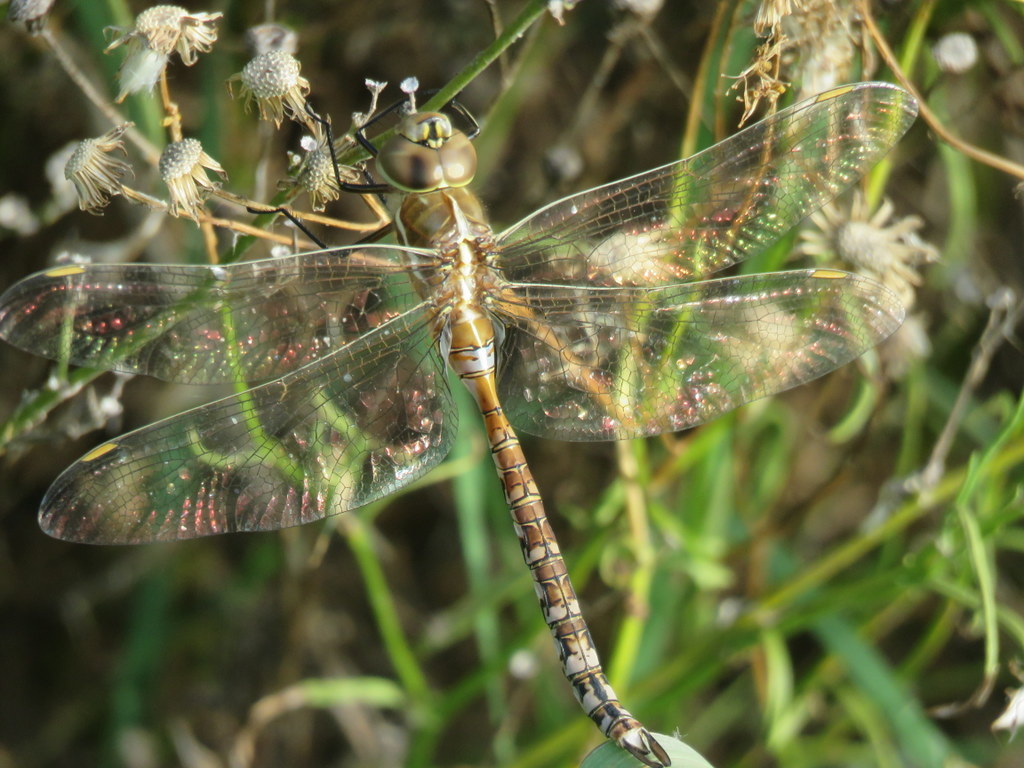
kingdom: Animalia
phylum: Arthropoda
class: Insecta
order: Odonata
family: Aeshnidae
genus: Rhionaeschna
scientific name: Rhionaeschna bonariensis
